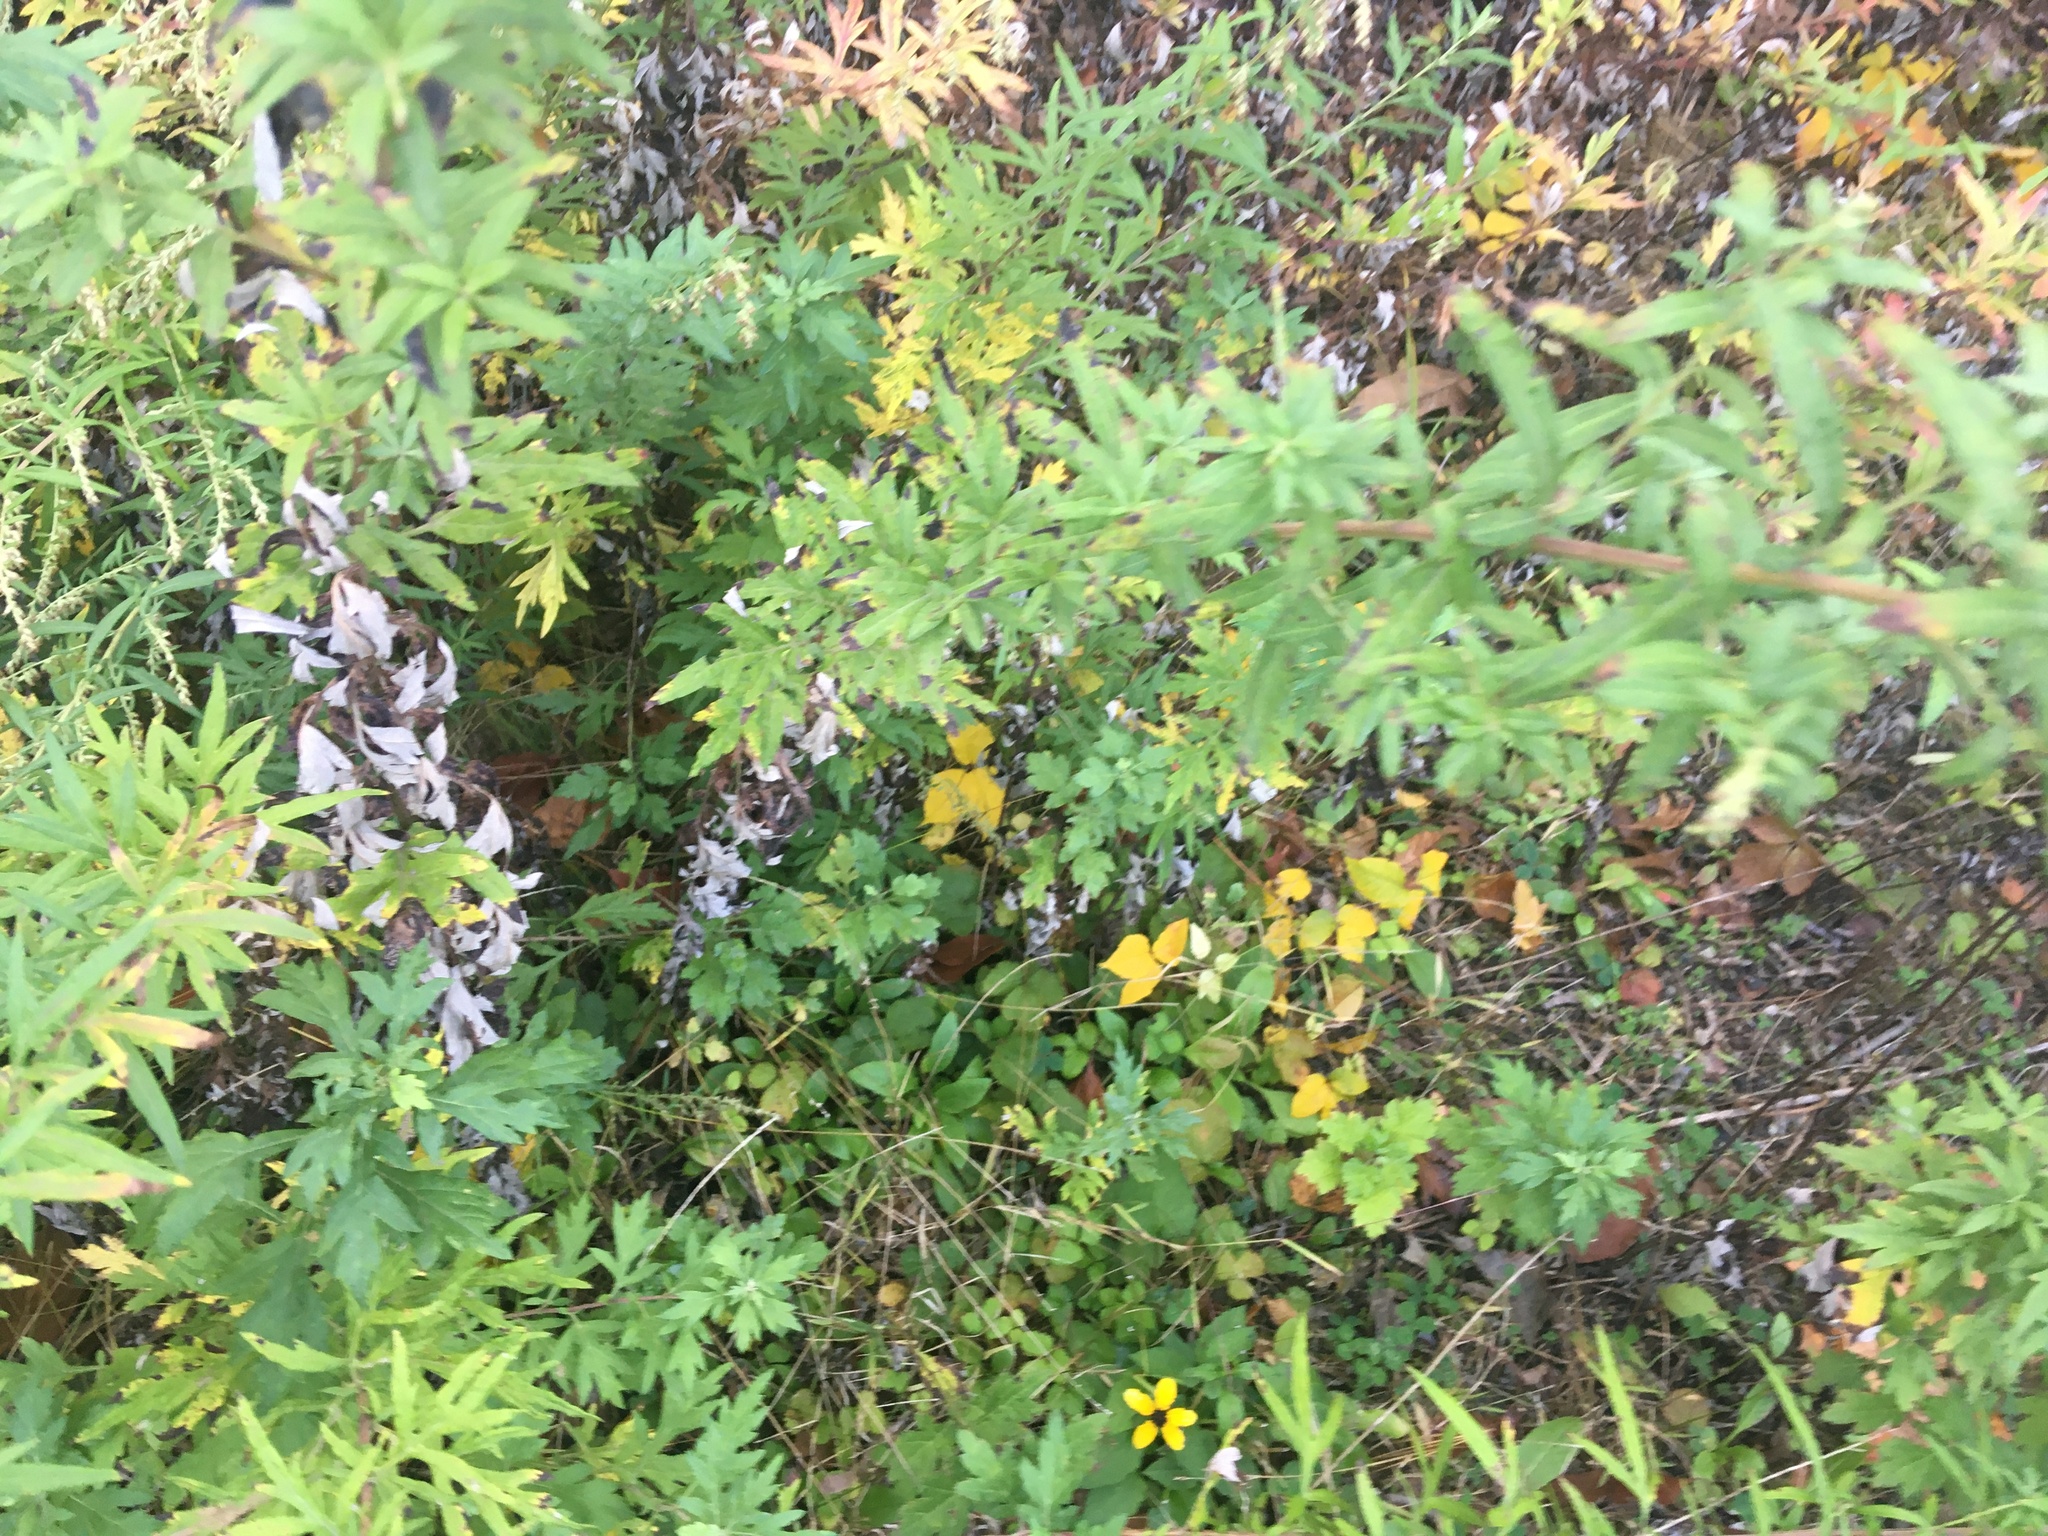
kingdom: Plantae
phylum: Tracheophyta
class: Magnoliopsida
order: Asterales
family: Asteraceae
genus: Artemisia
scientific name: Artemisia vulgaris
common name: Mugwort
